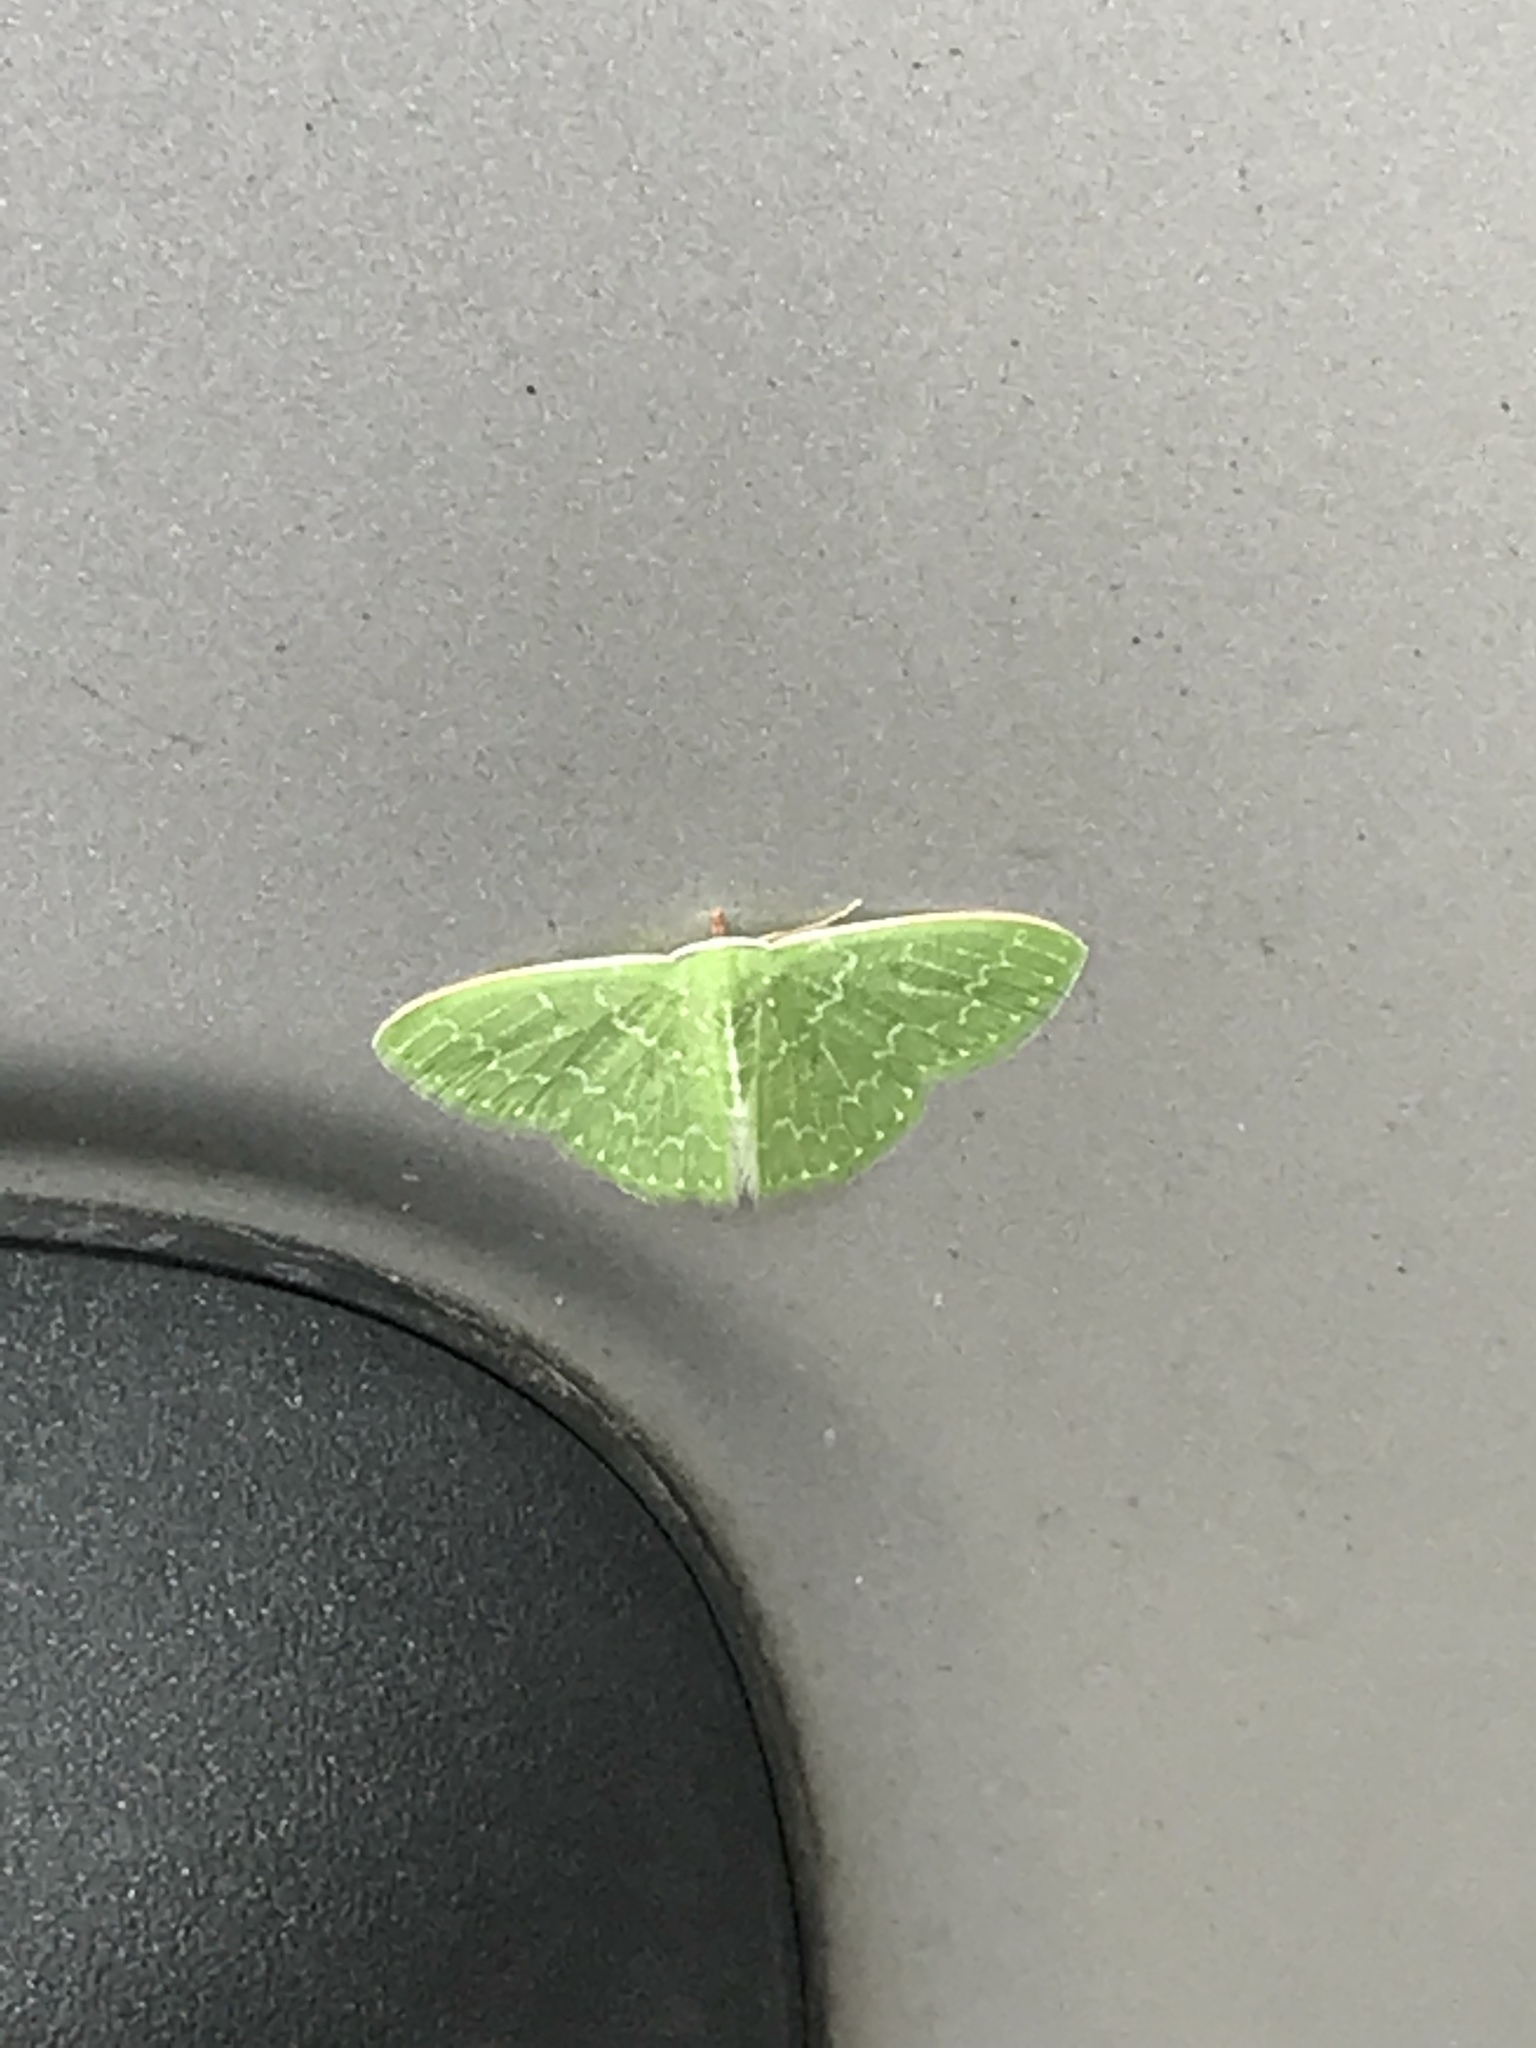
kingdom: Animalia
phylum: Arthropoda
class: Insecta
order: Lepidoptera
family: Geometridae
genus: Synchlora
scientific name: Synchlora frondaria
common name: Southern emerald
